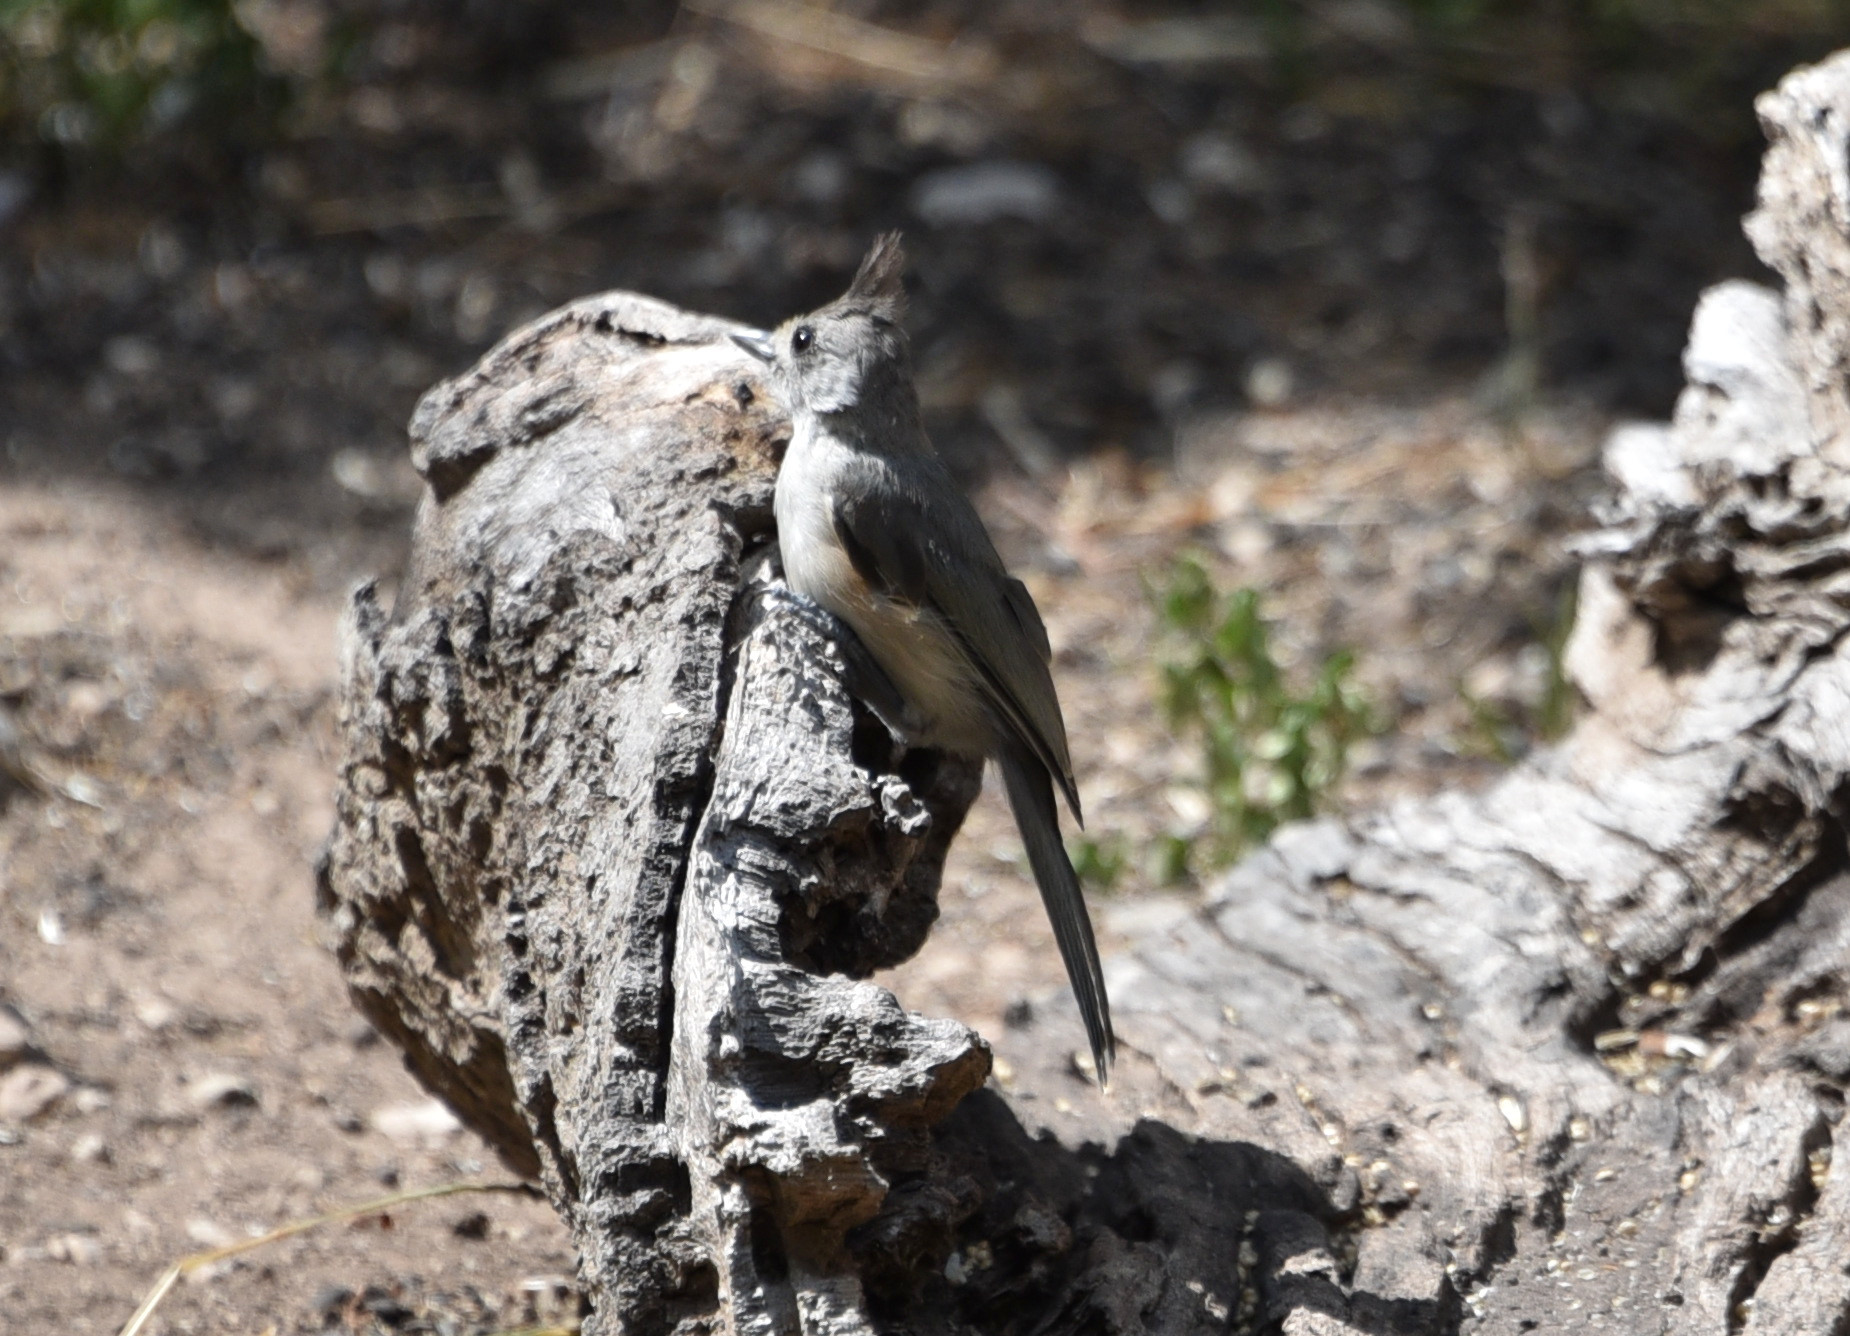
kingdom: Animalia
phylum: Chordata
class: Aves
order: Passeriformes
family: Paridae
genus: Baeolophus
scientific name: Baeolophus atricristatus
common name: Black-crested titmouse
